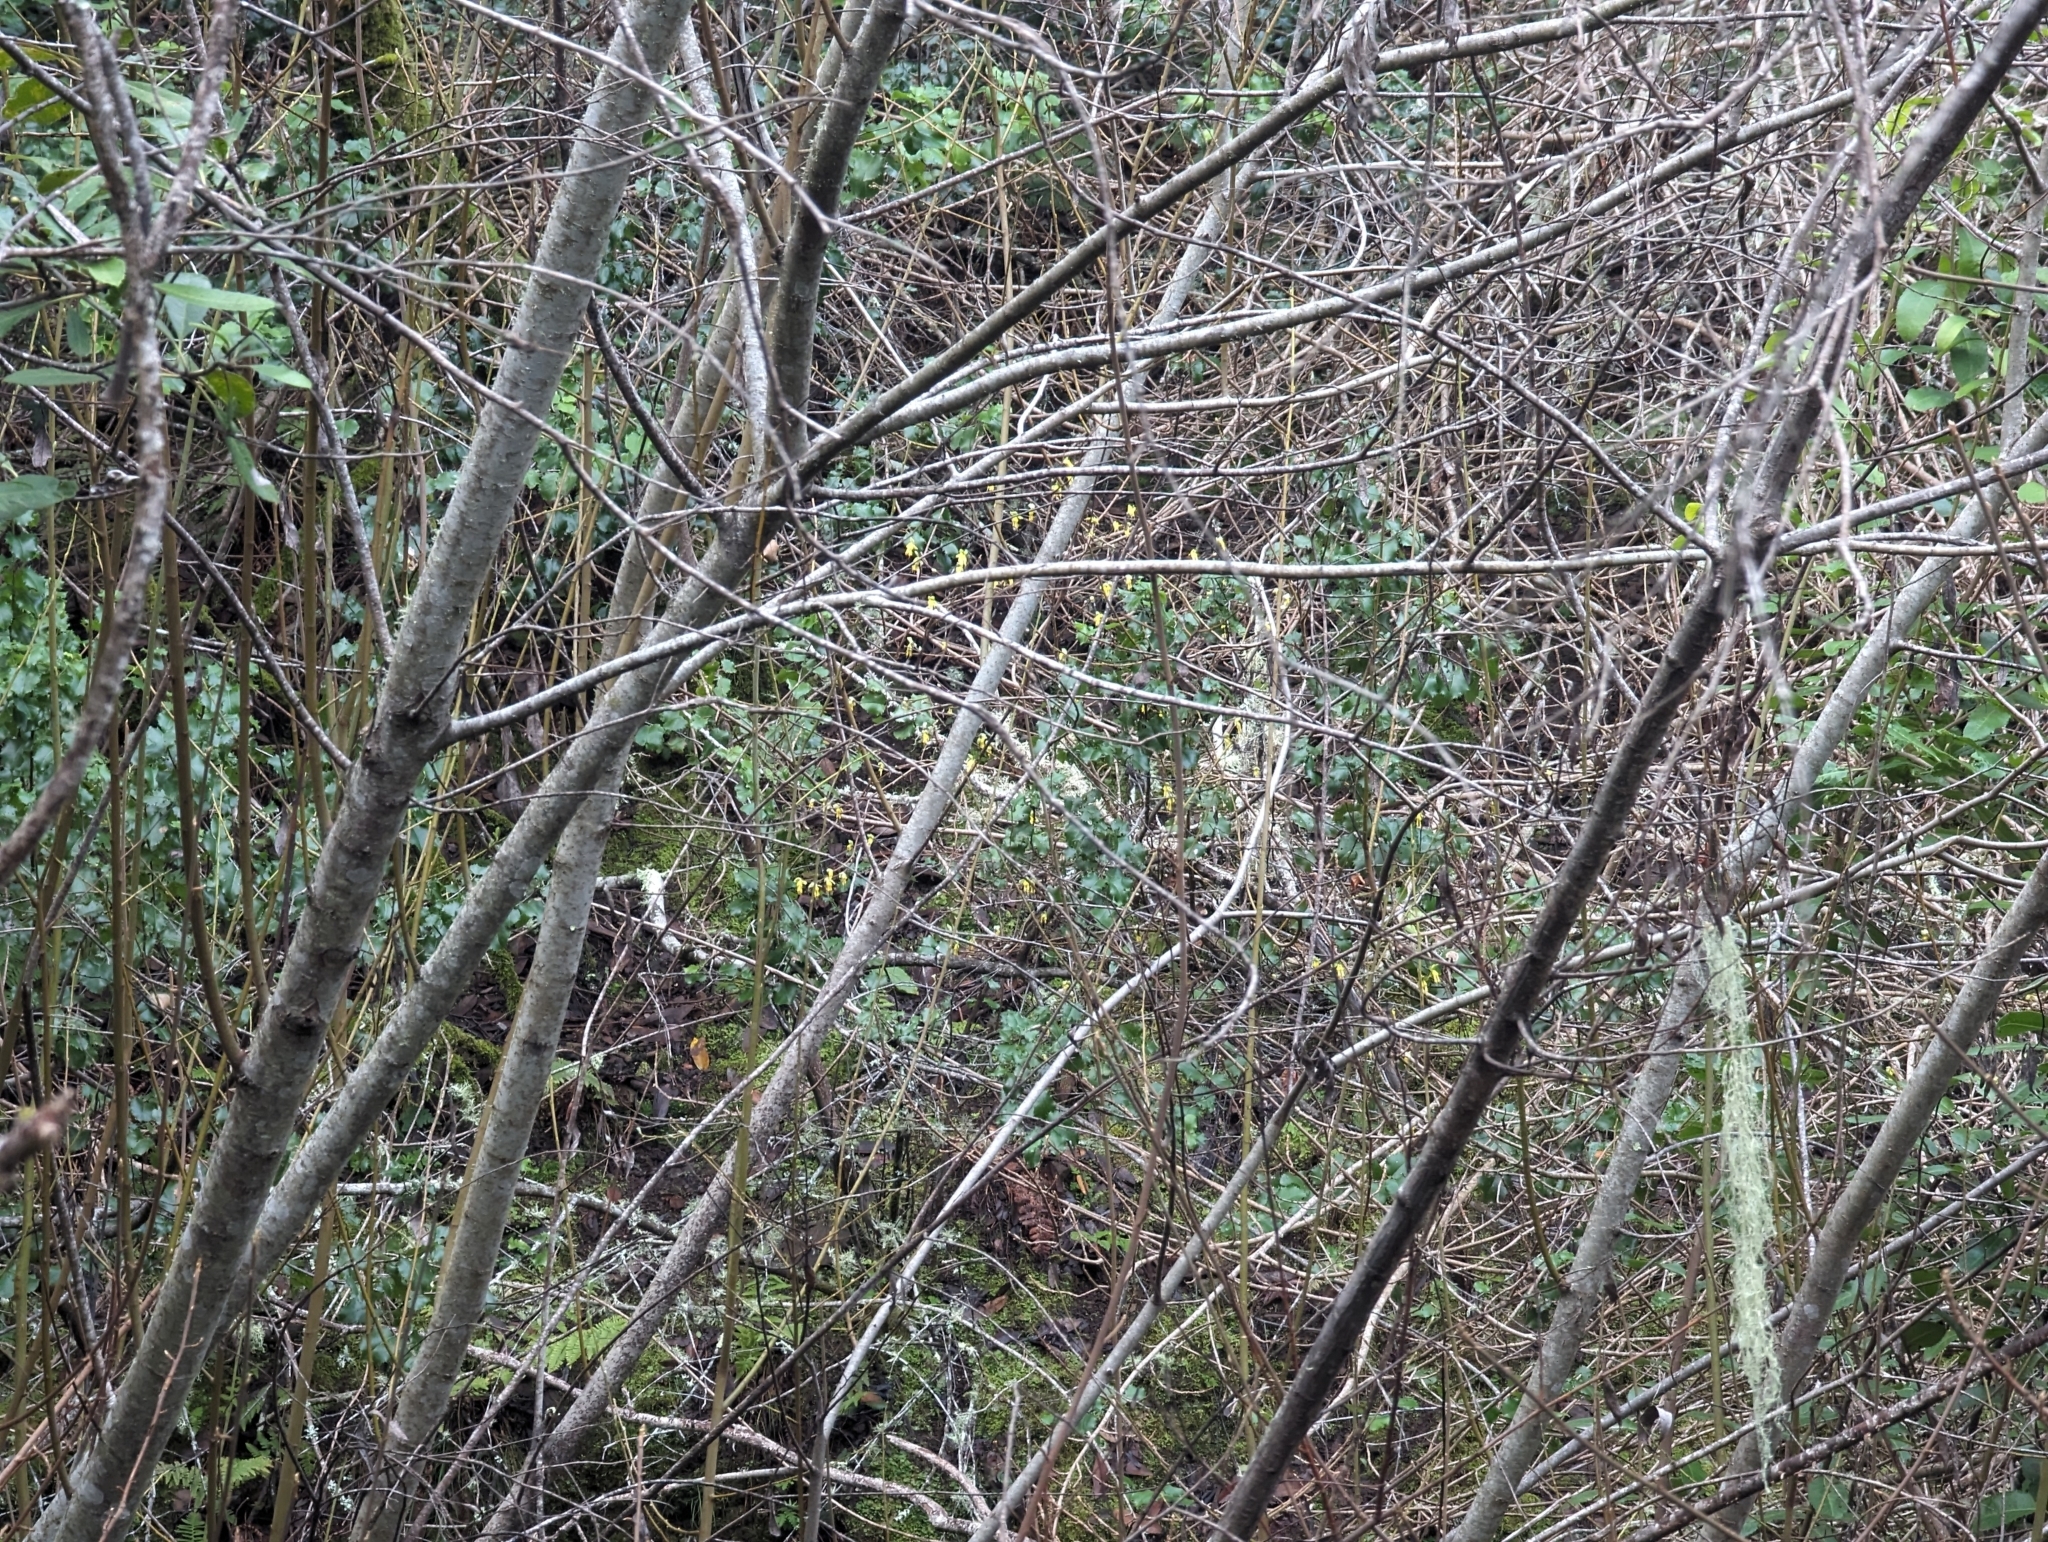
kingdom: Plantae
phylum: Tracheophyta
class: Magnoliopsida
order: Malvales
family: Thymelaeaceae
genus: Dirca
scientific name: Dirca occidentalis
